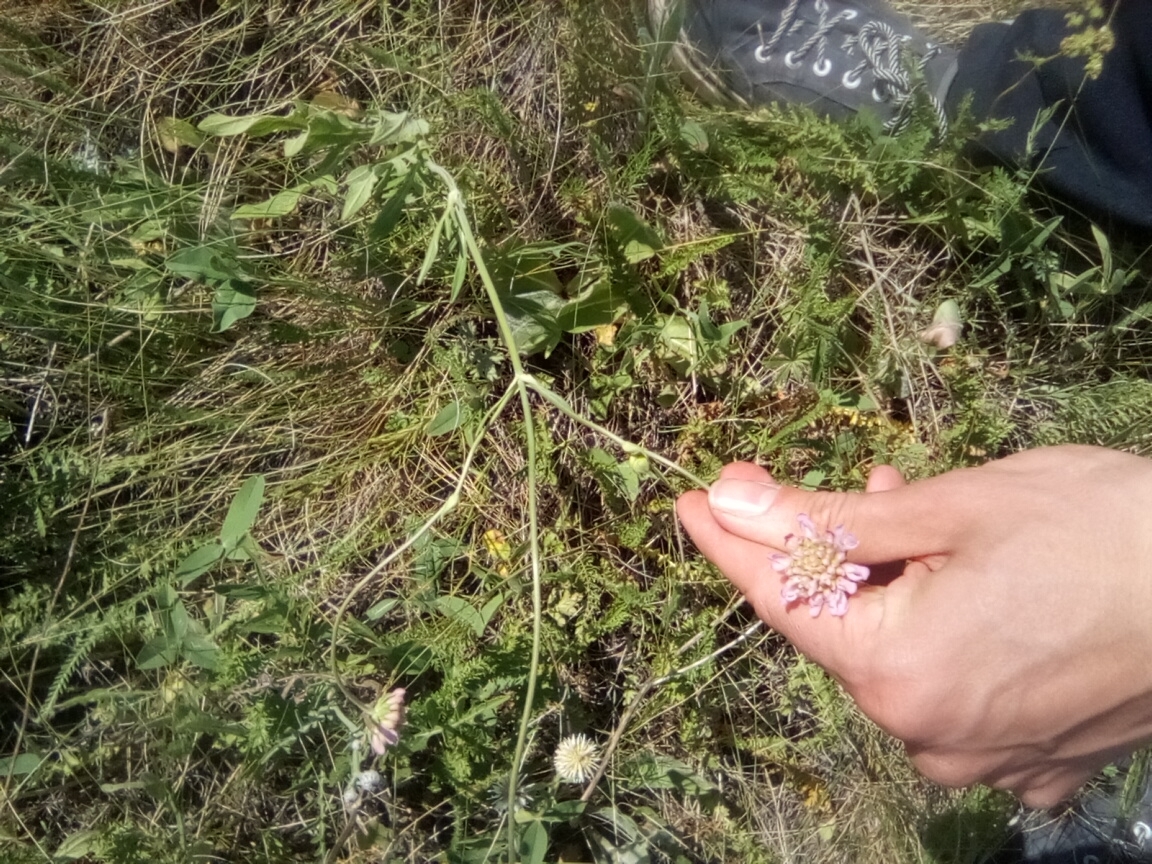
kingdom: Plantae
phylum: Tracheophyta
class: Magnoliopsida
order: Dipsacales
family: Caprifoliaceae
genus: Knautia
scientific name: Knautia arvensis
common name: Field scabiosa
